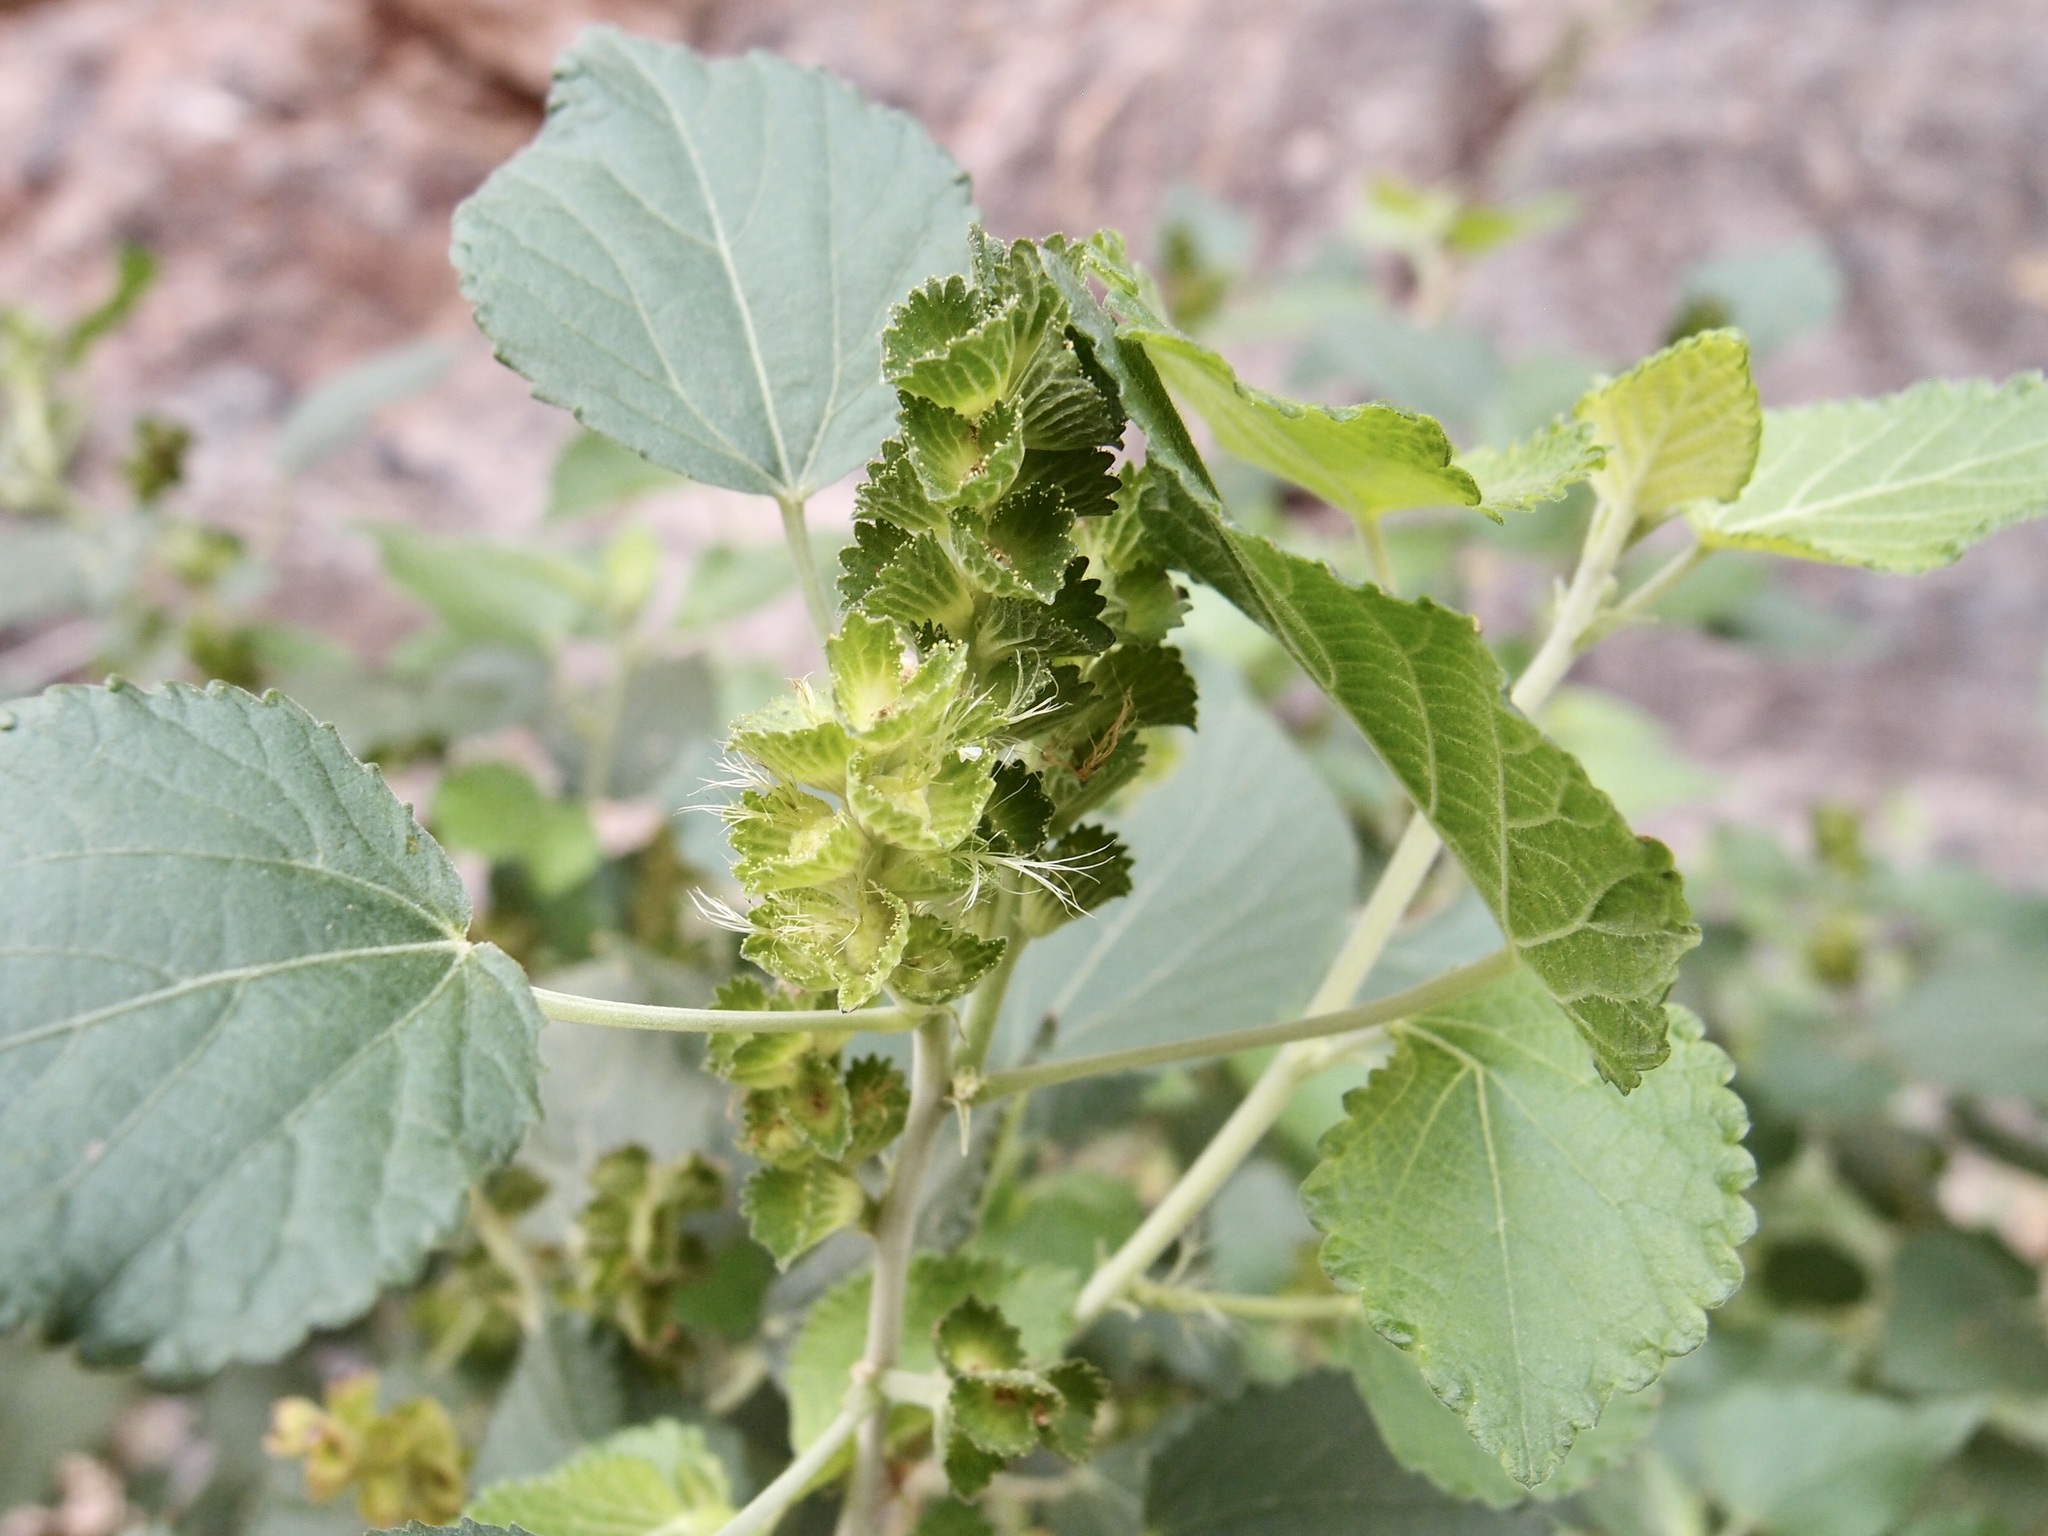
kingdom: Plantae
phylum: Tracheophyta
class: Magnoliopsida
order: Malpighiales
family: Euphorbiaceae
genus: Acalypha
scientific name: Acalypha californica
